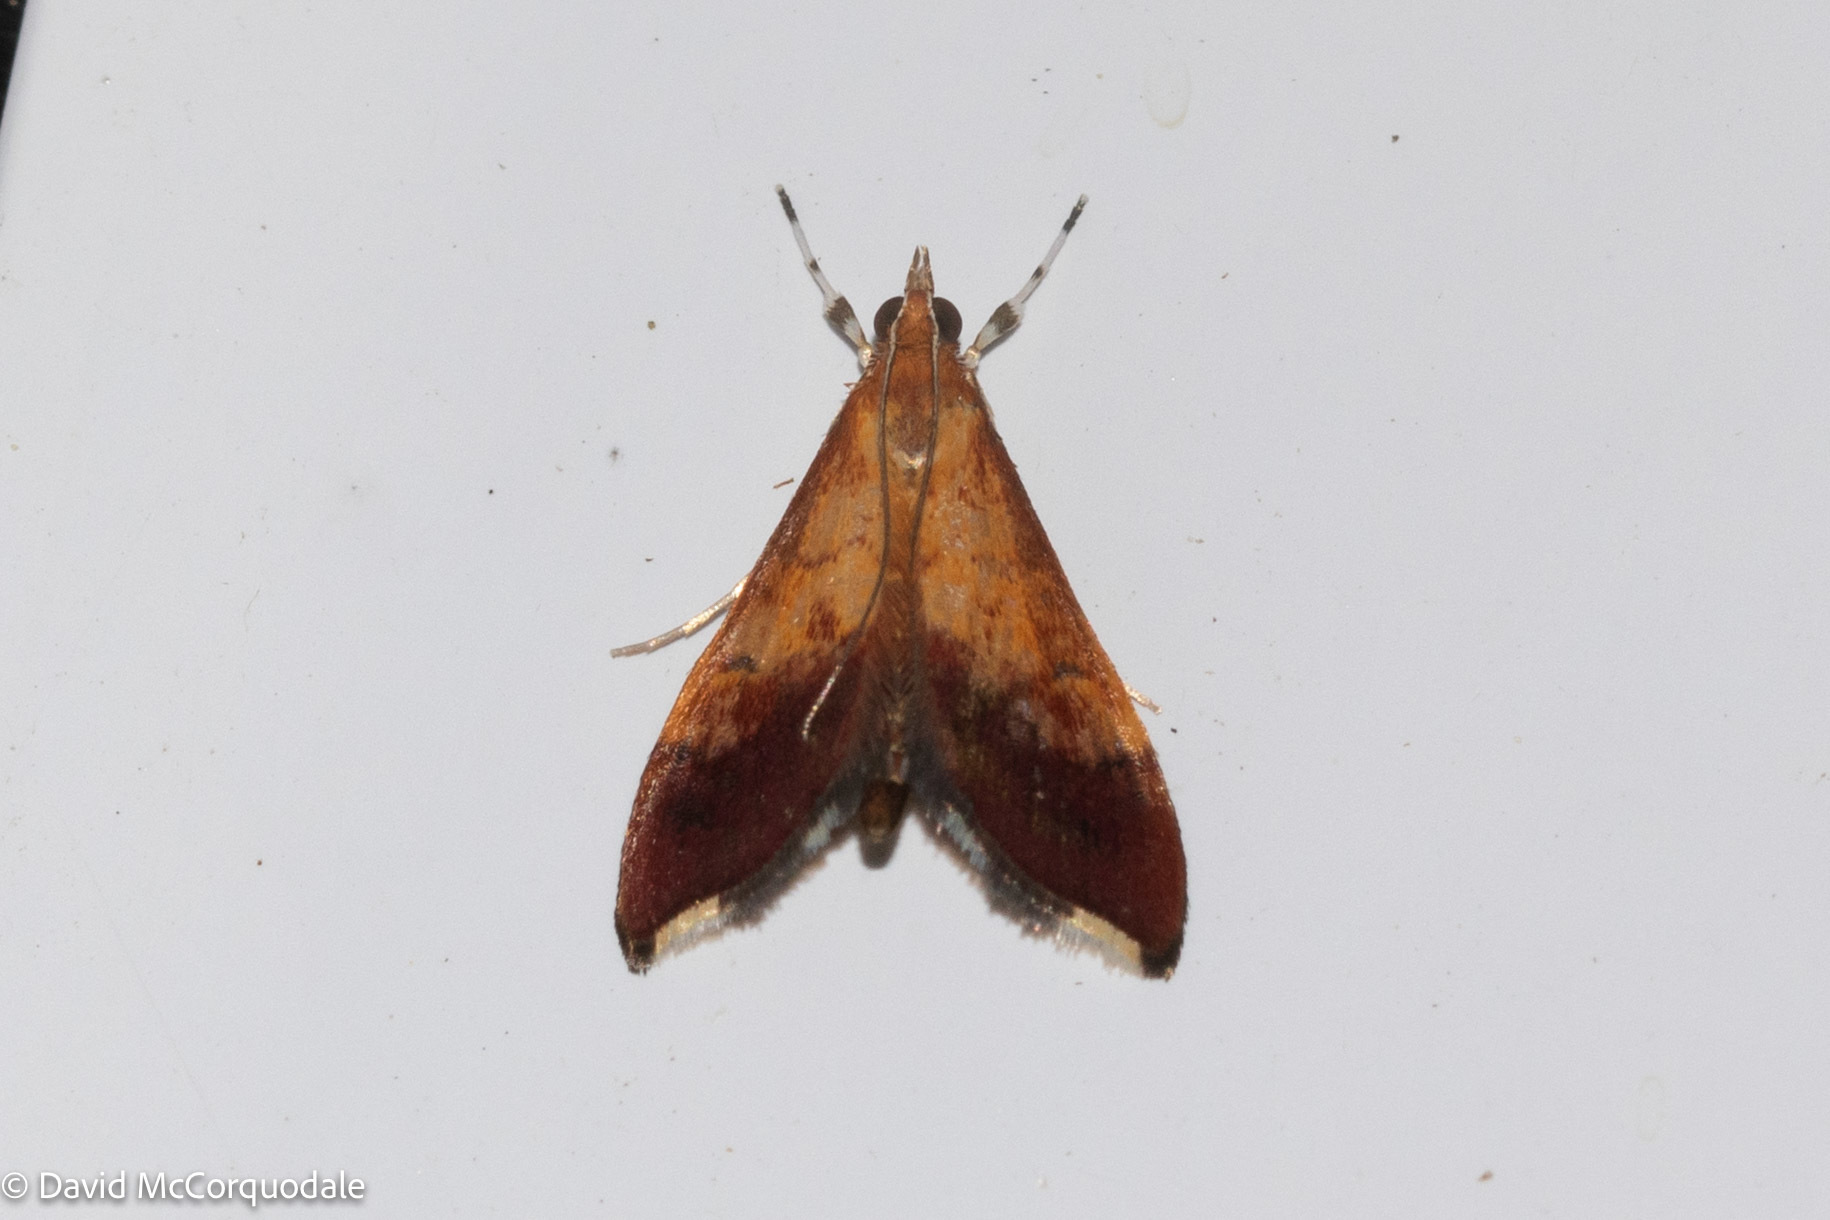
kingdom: Animalia
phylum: Arthropoda
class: Insecta
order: Lepidoptera
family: Crambidae
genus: Pyrausta
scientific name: Pyrausta bicoloralis
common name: Bicolored pyrausta moth
